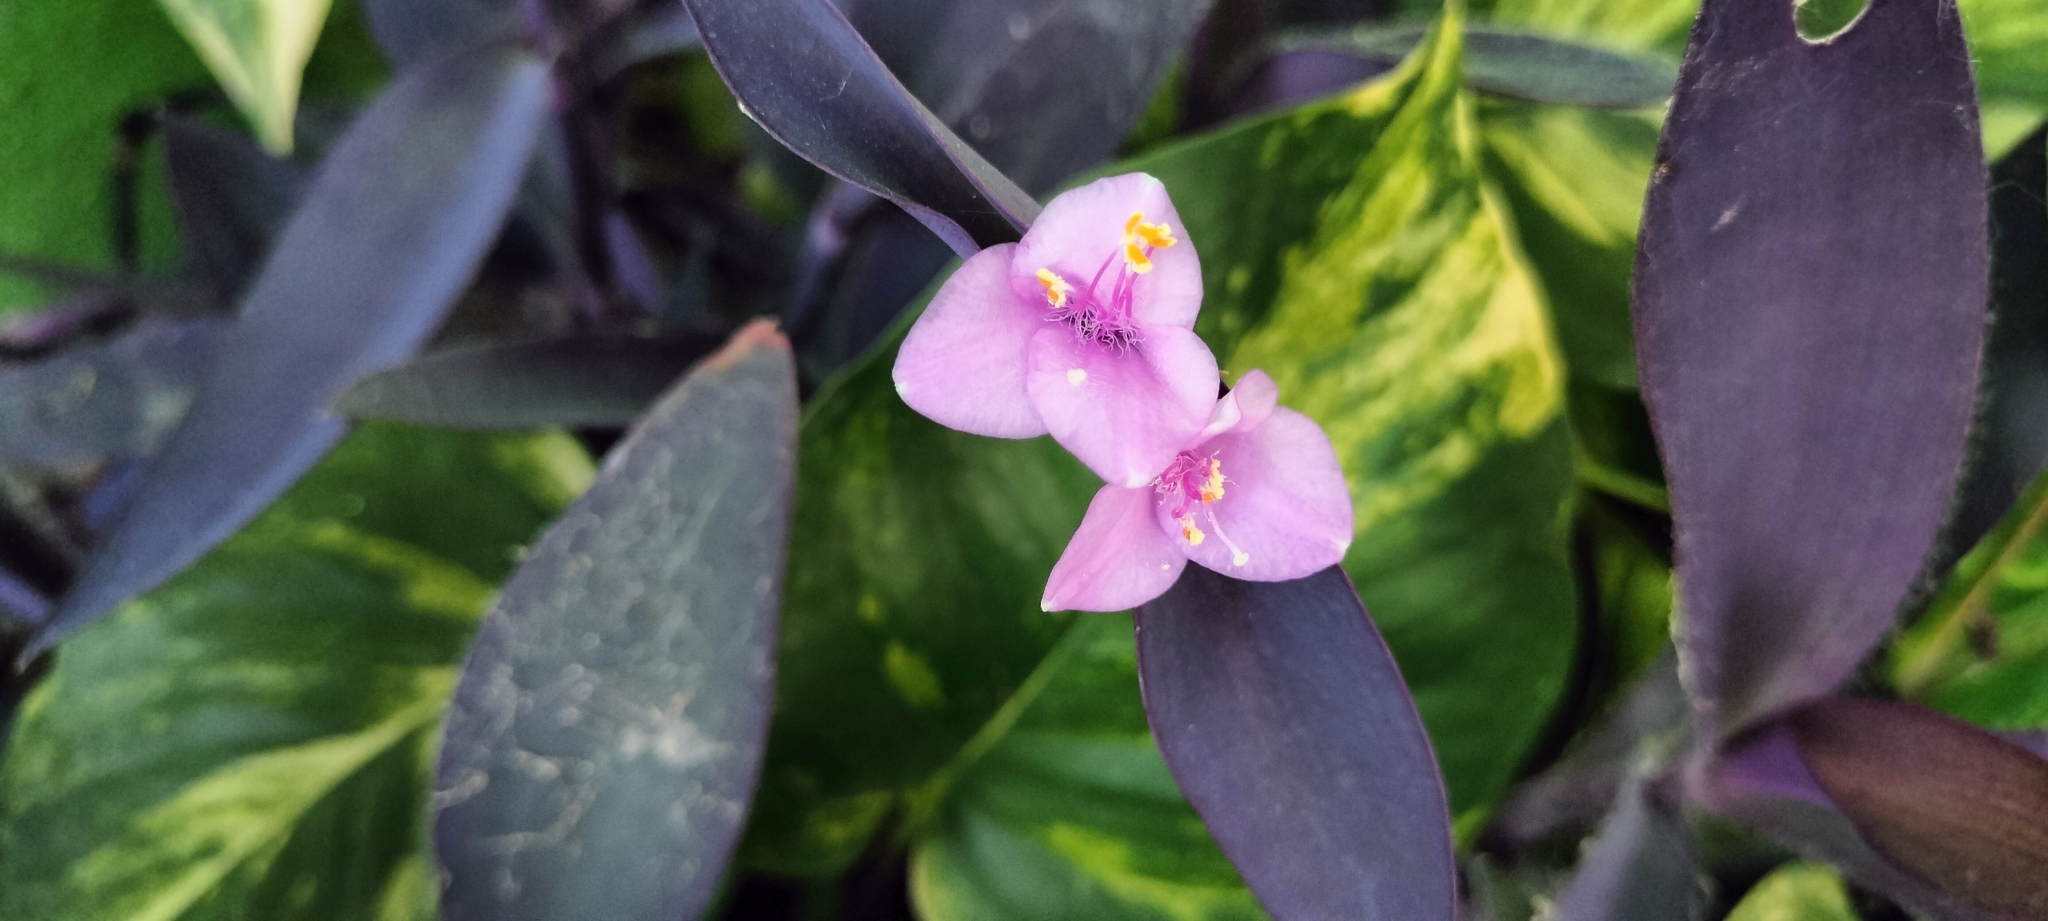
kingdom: Plantae
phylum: Tracheophyta
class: Liliopsida
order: Commelinales
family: Commelinaceae
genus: Tradescantia
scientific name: Tradescantia pallida
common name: Purpleheart
